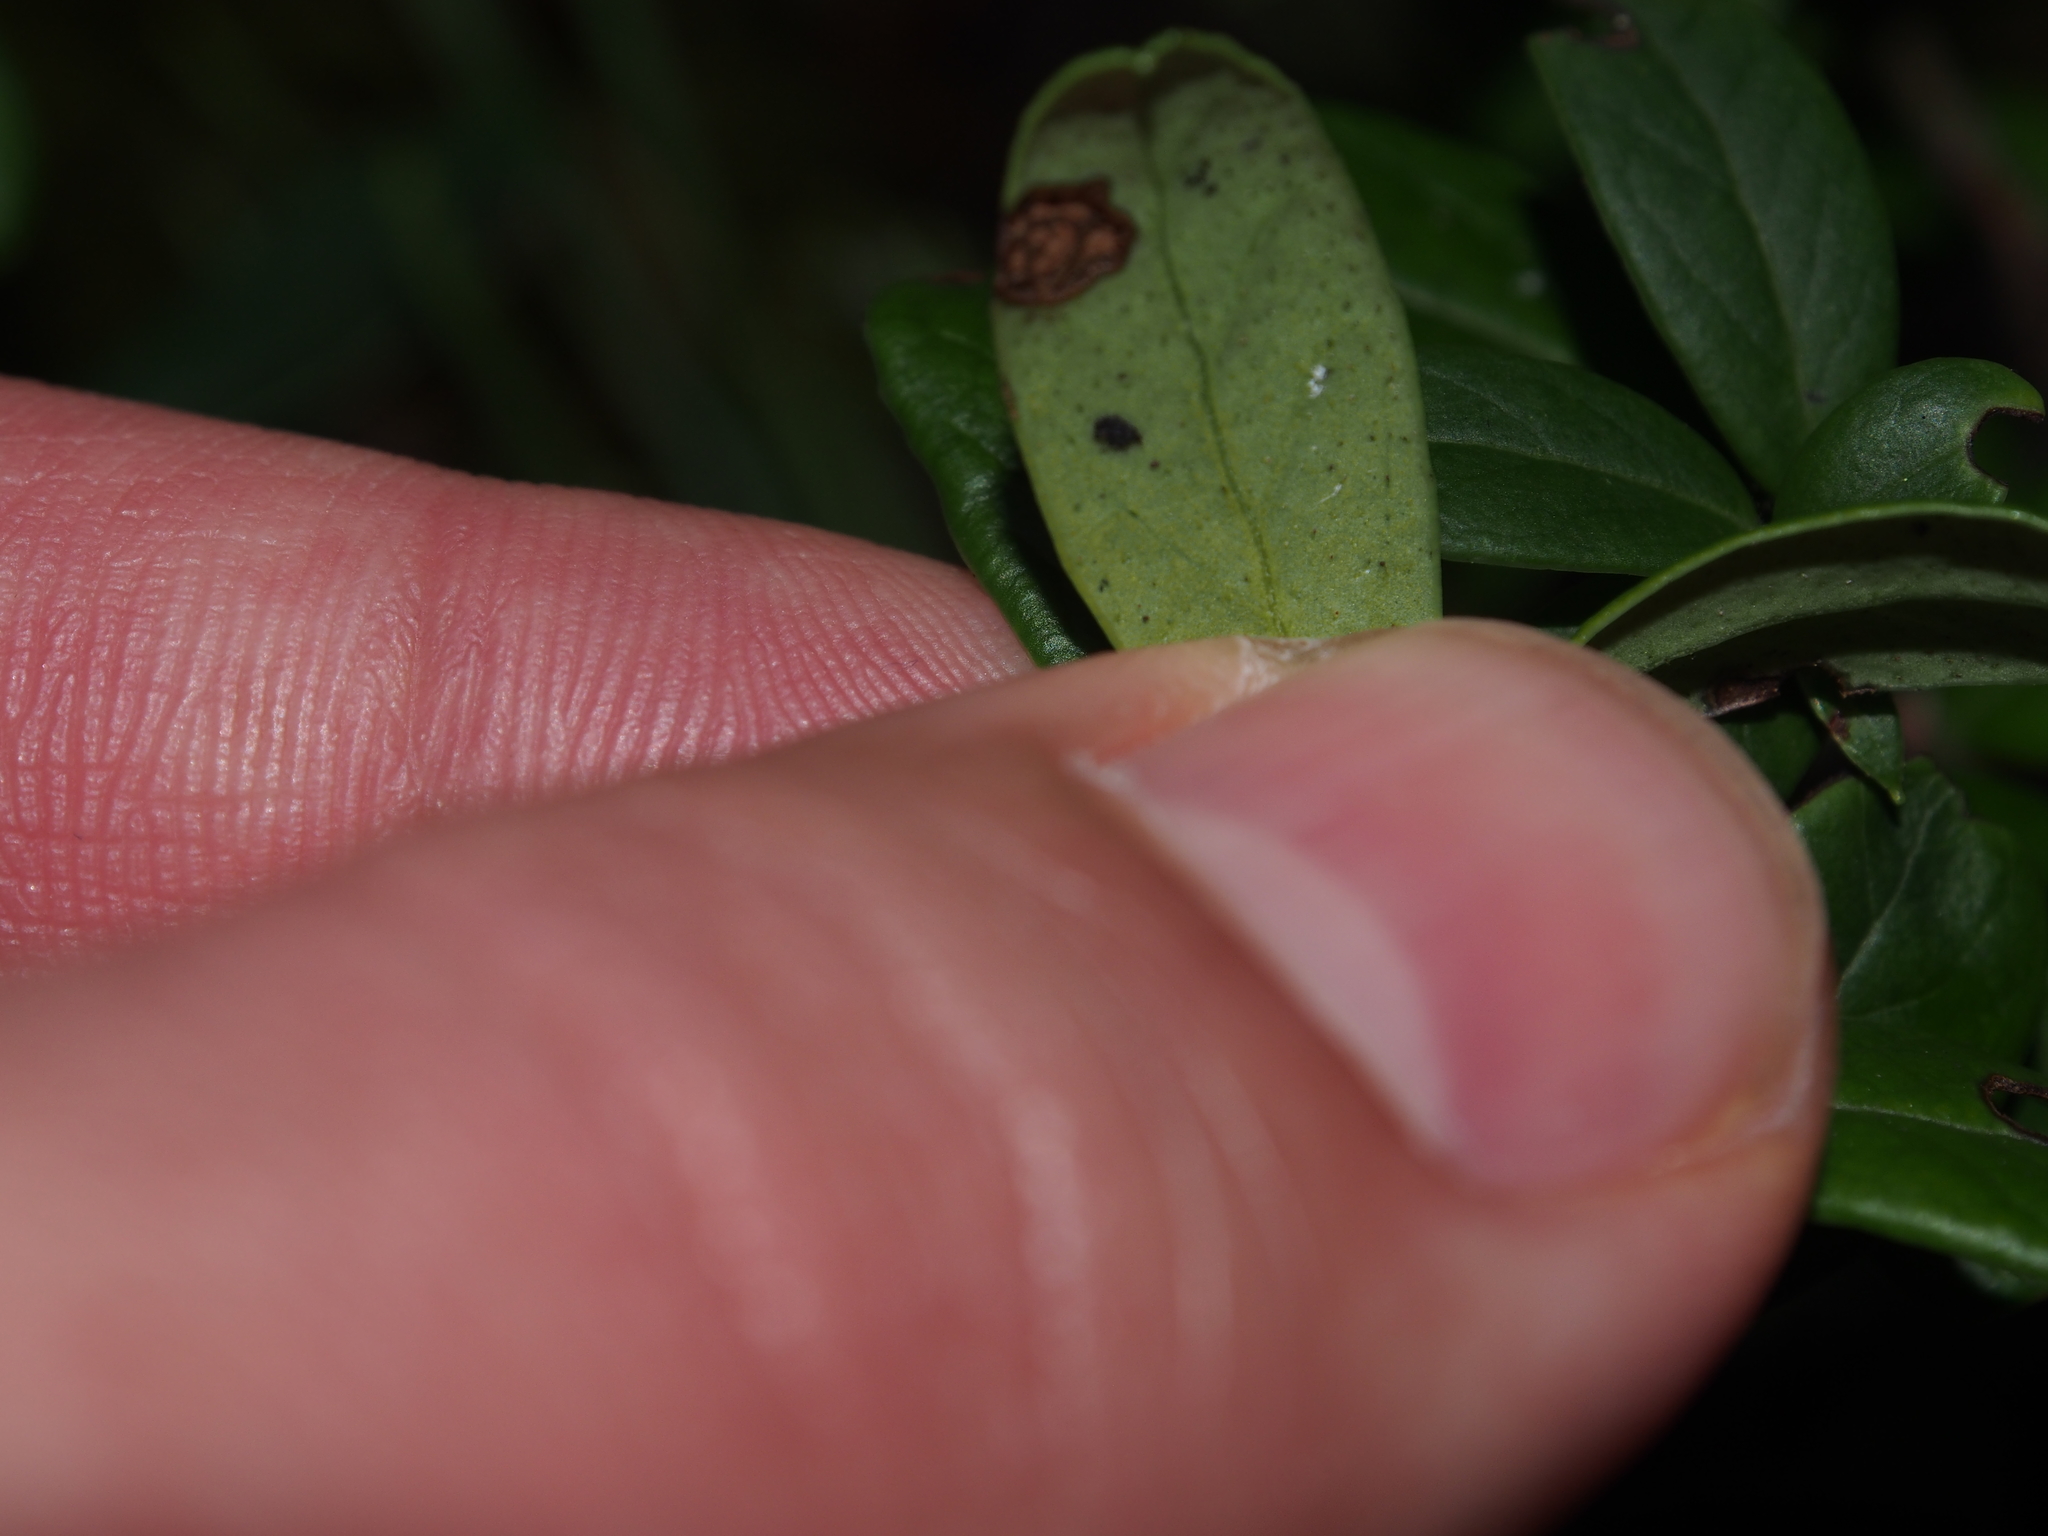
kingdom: Plantae
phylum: Tracheophyta
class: Magnoliopsida
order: Ericales
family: Ericaceae
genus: Vaccinium
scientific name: Vaccinium vitis-idaea
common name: Cowberry
